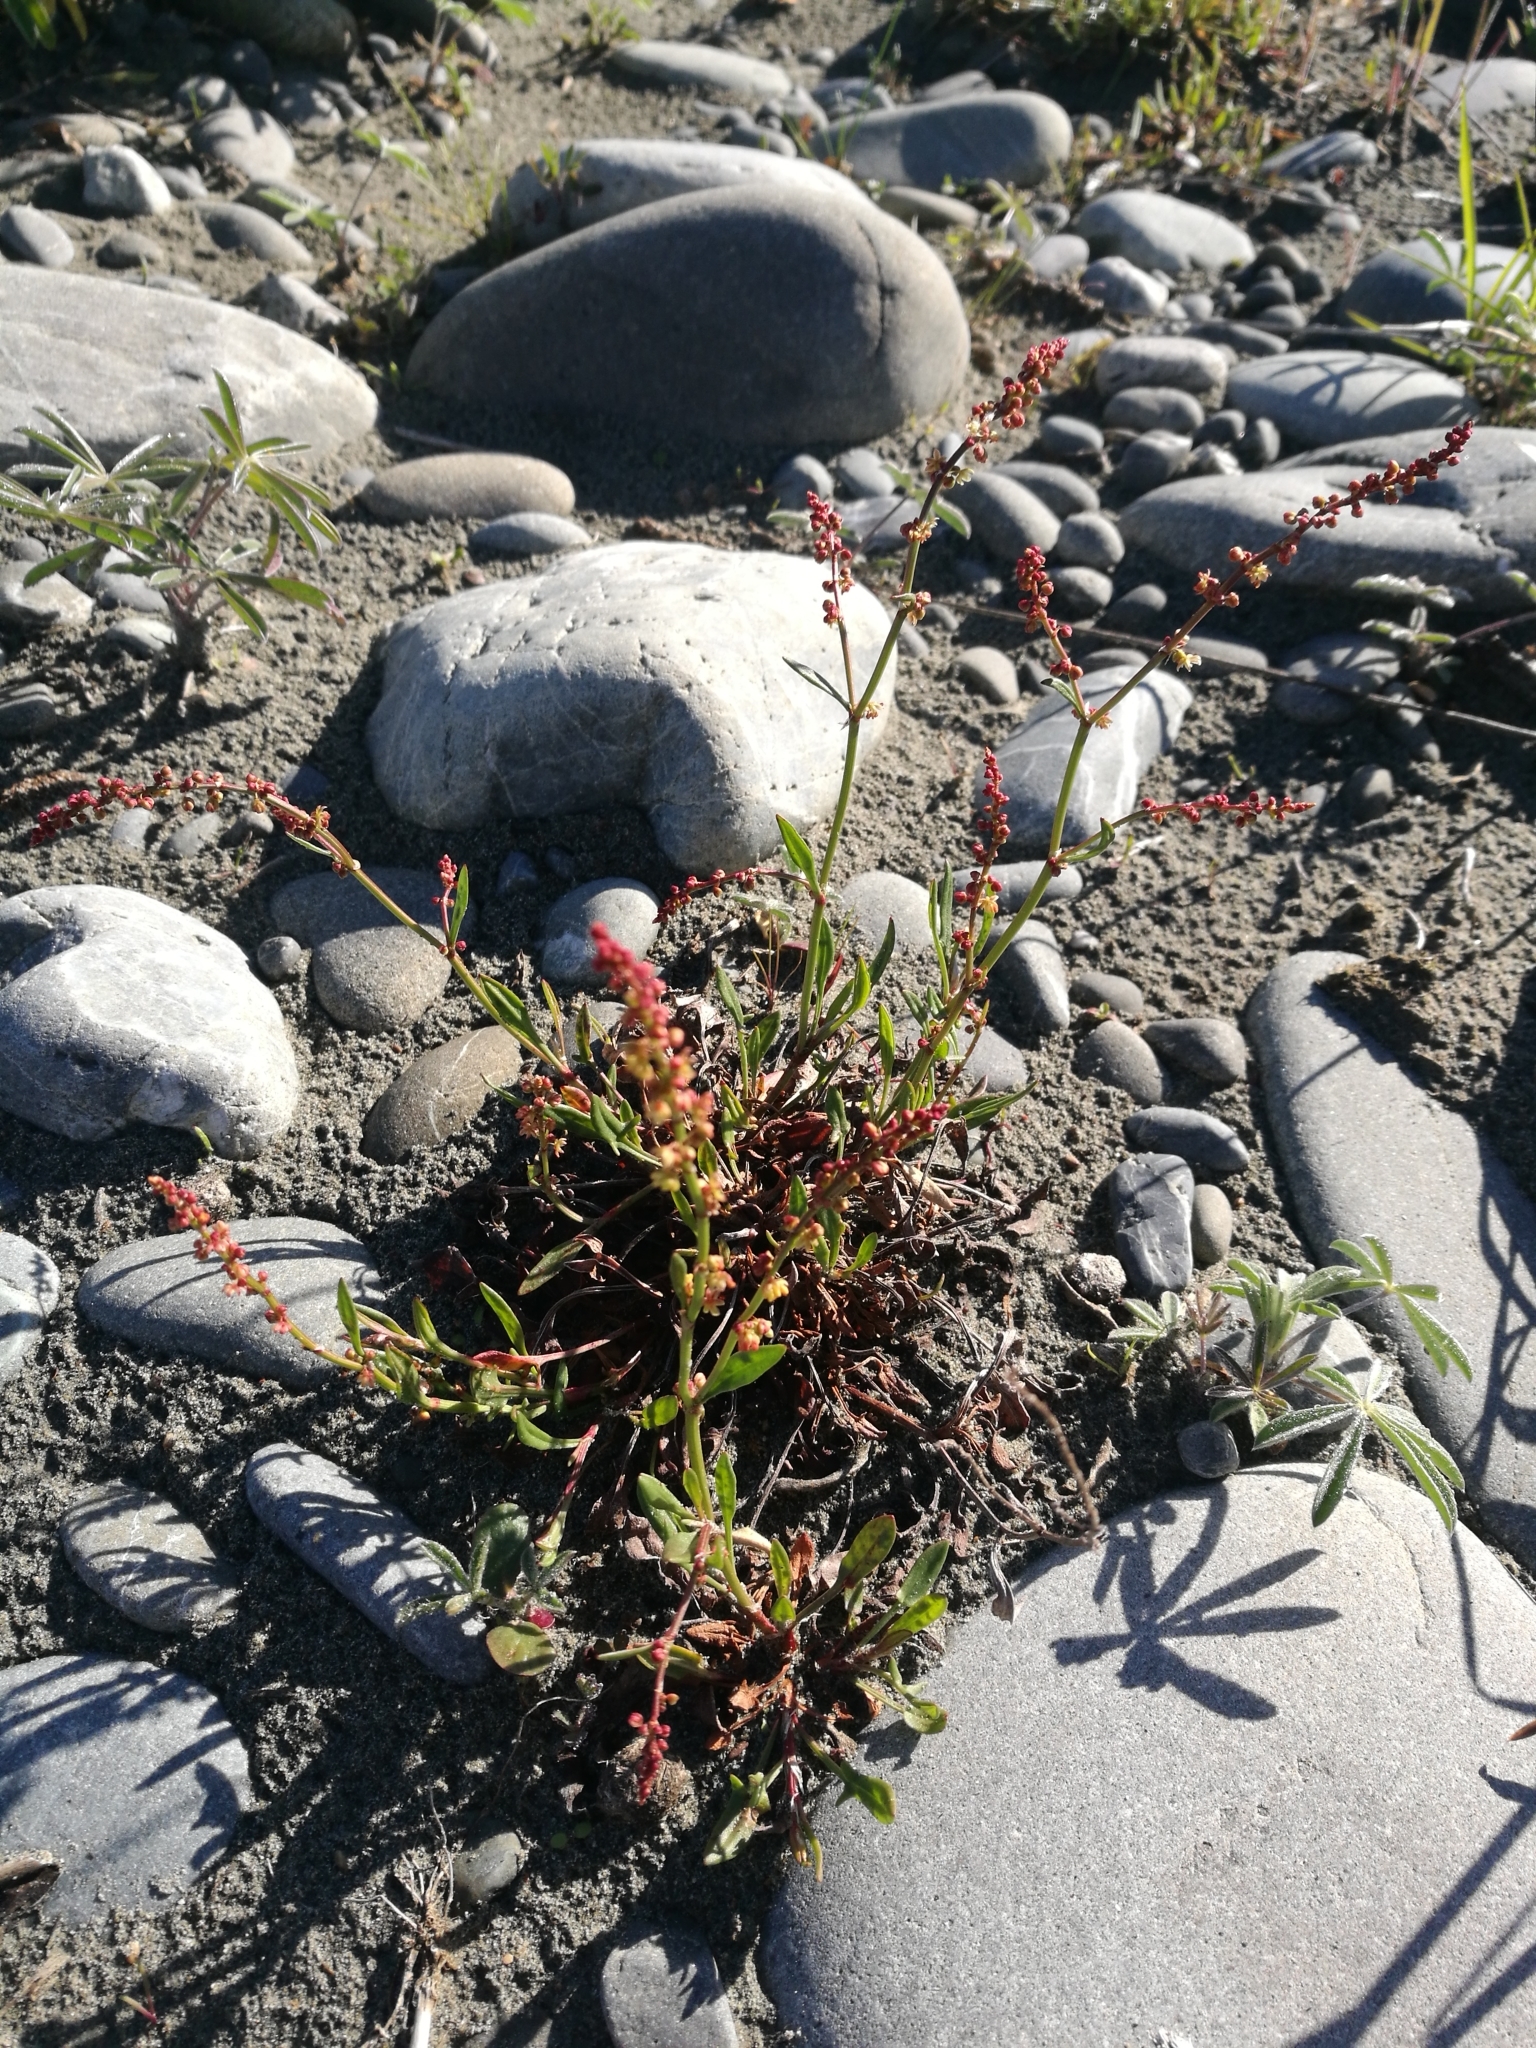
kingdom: Plantae
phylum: Tracheophyta
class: Magnoliopsida
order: Caryophyllales
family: Polygonaceae
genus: Rumex
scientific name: Rumex acetosella
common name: Common sheep sorrel
